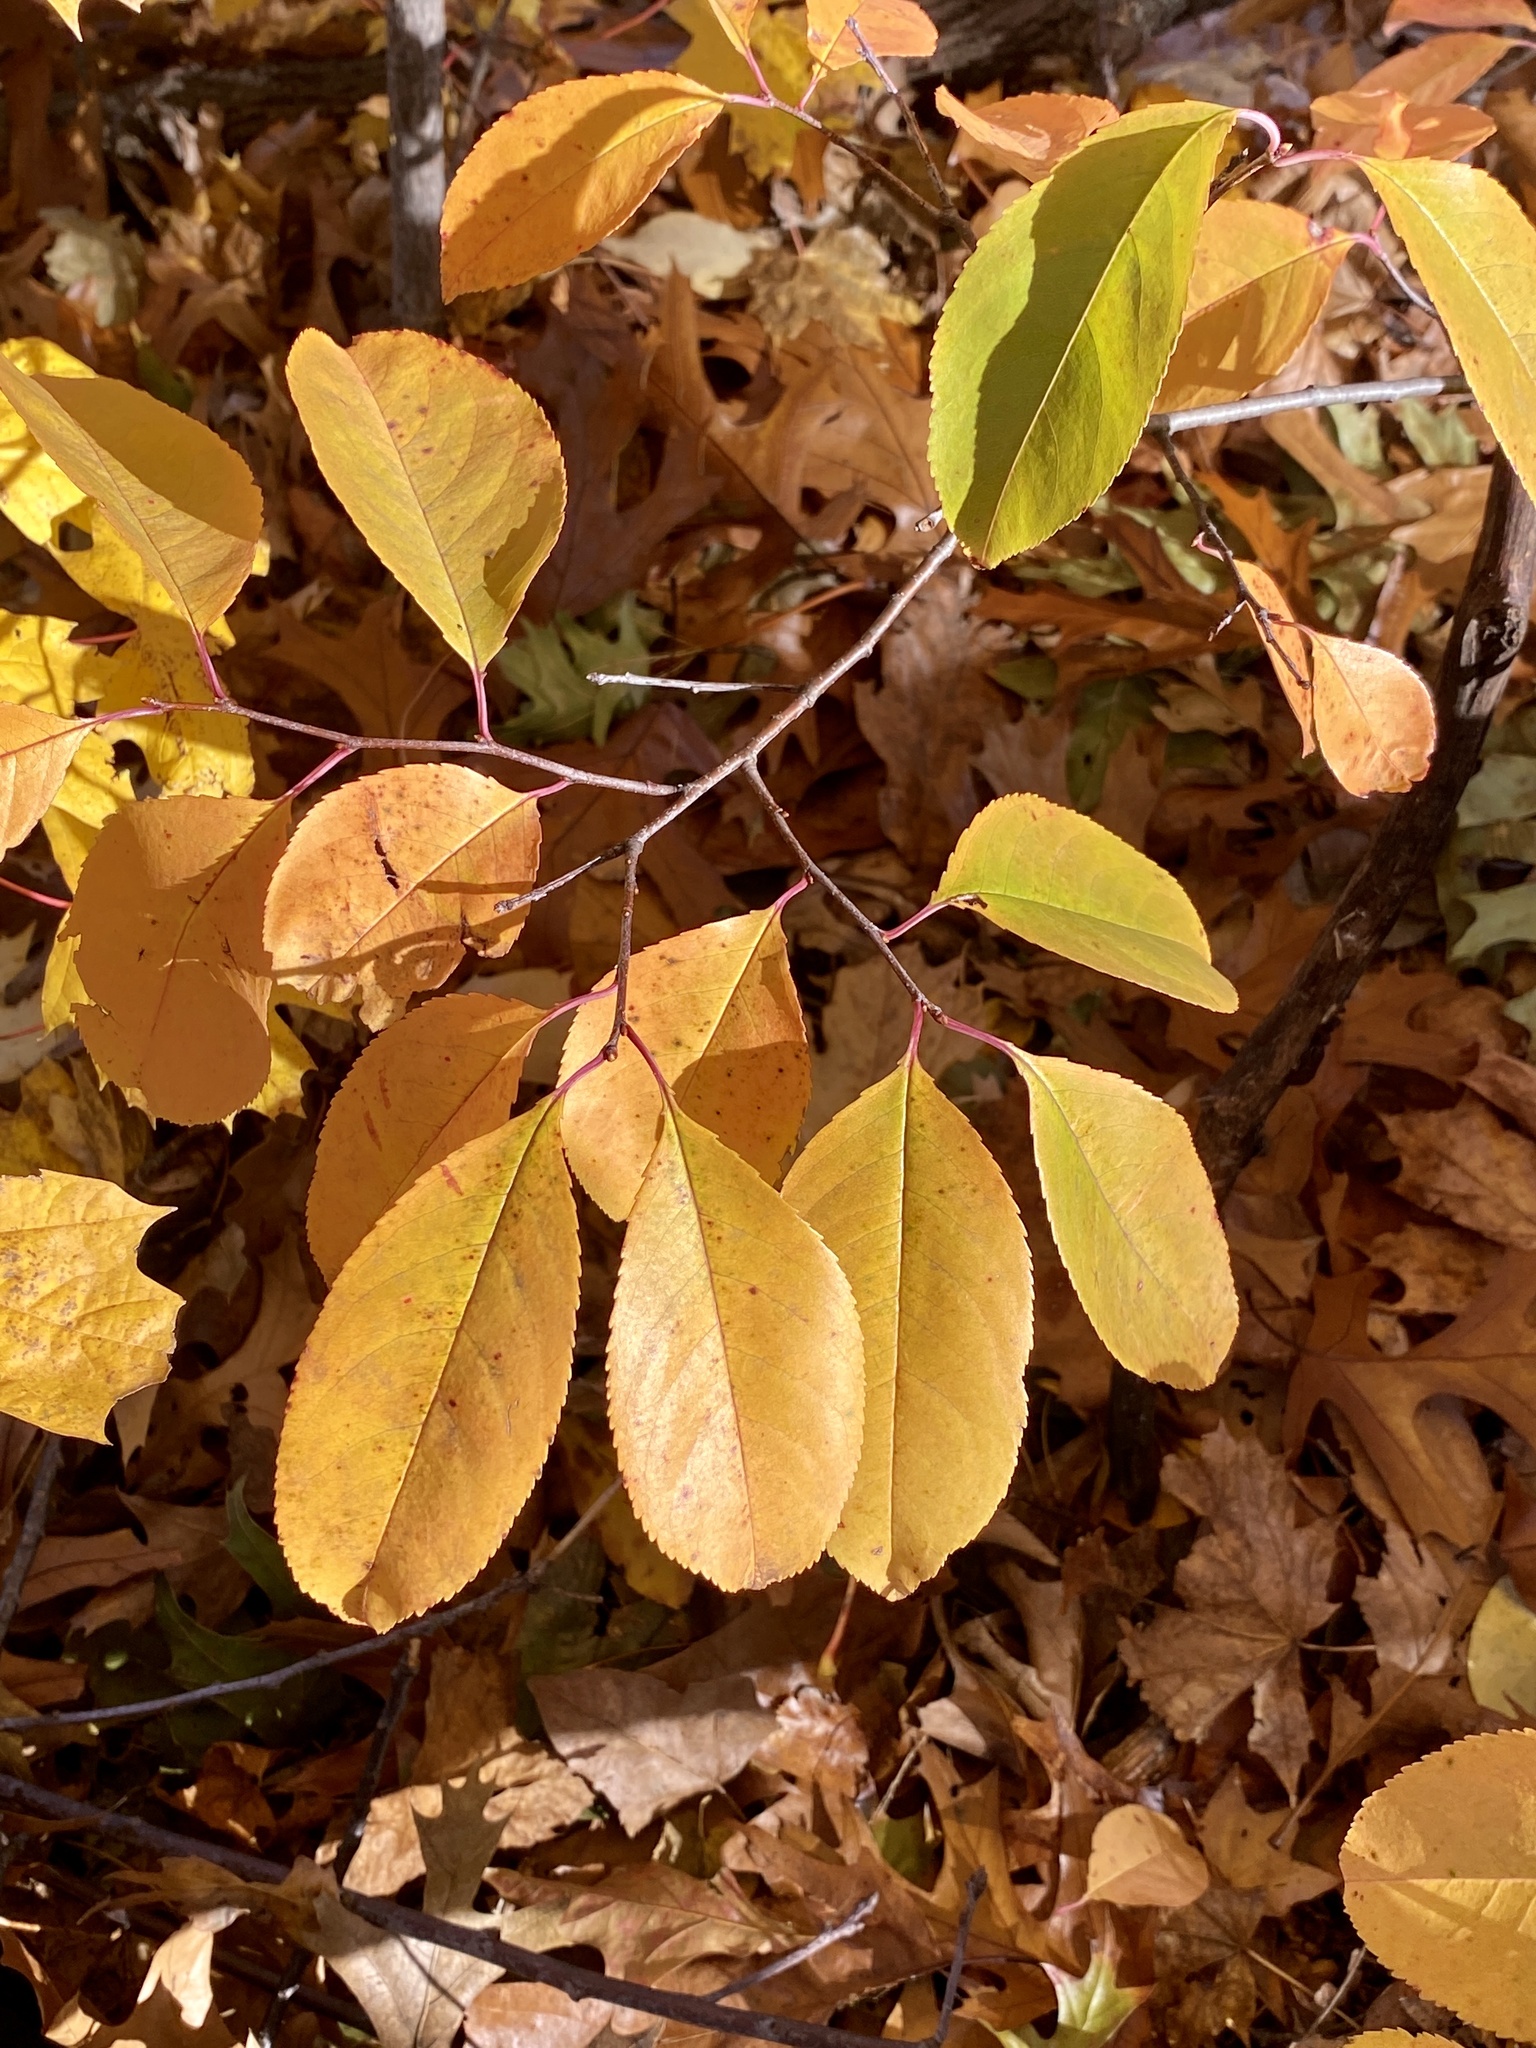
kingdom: Plantae
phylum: Tracheophyta
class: Magnoliopsida
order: Rosales
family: Rosaceae
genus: Prunus
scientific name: Prunus serotina
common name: Black cherry
